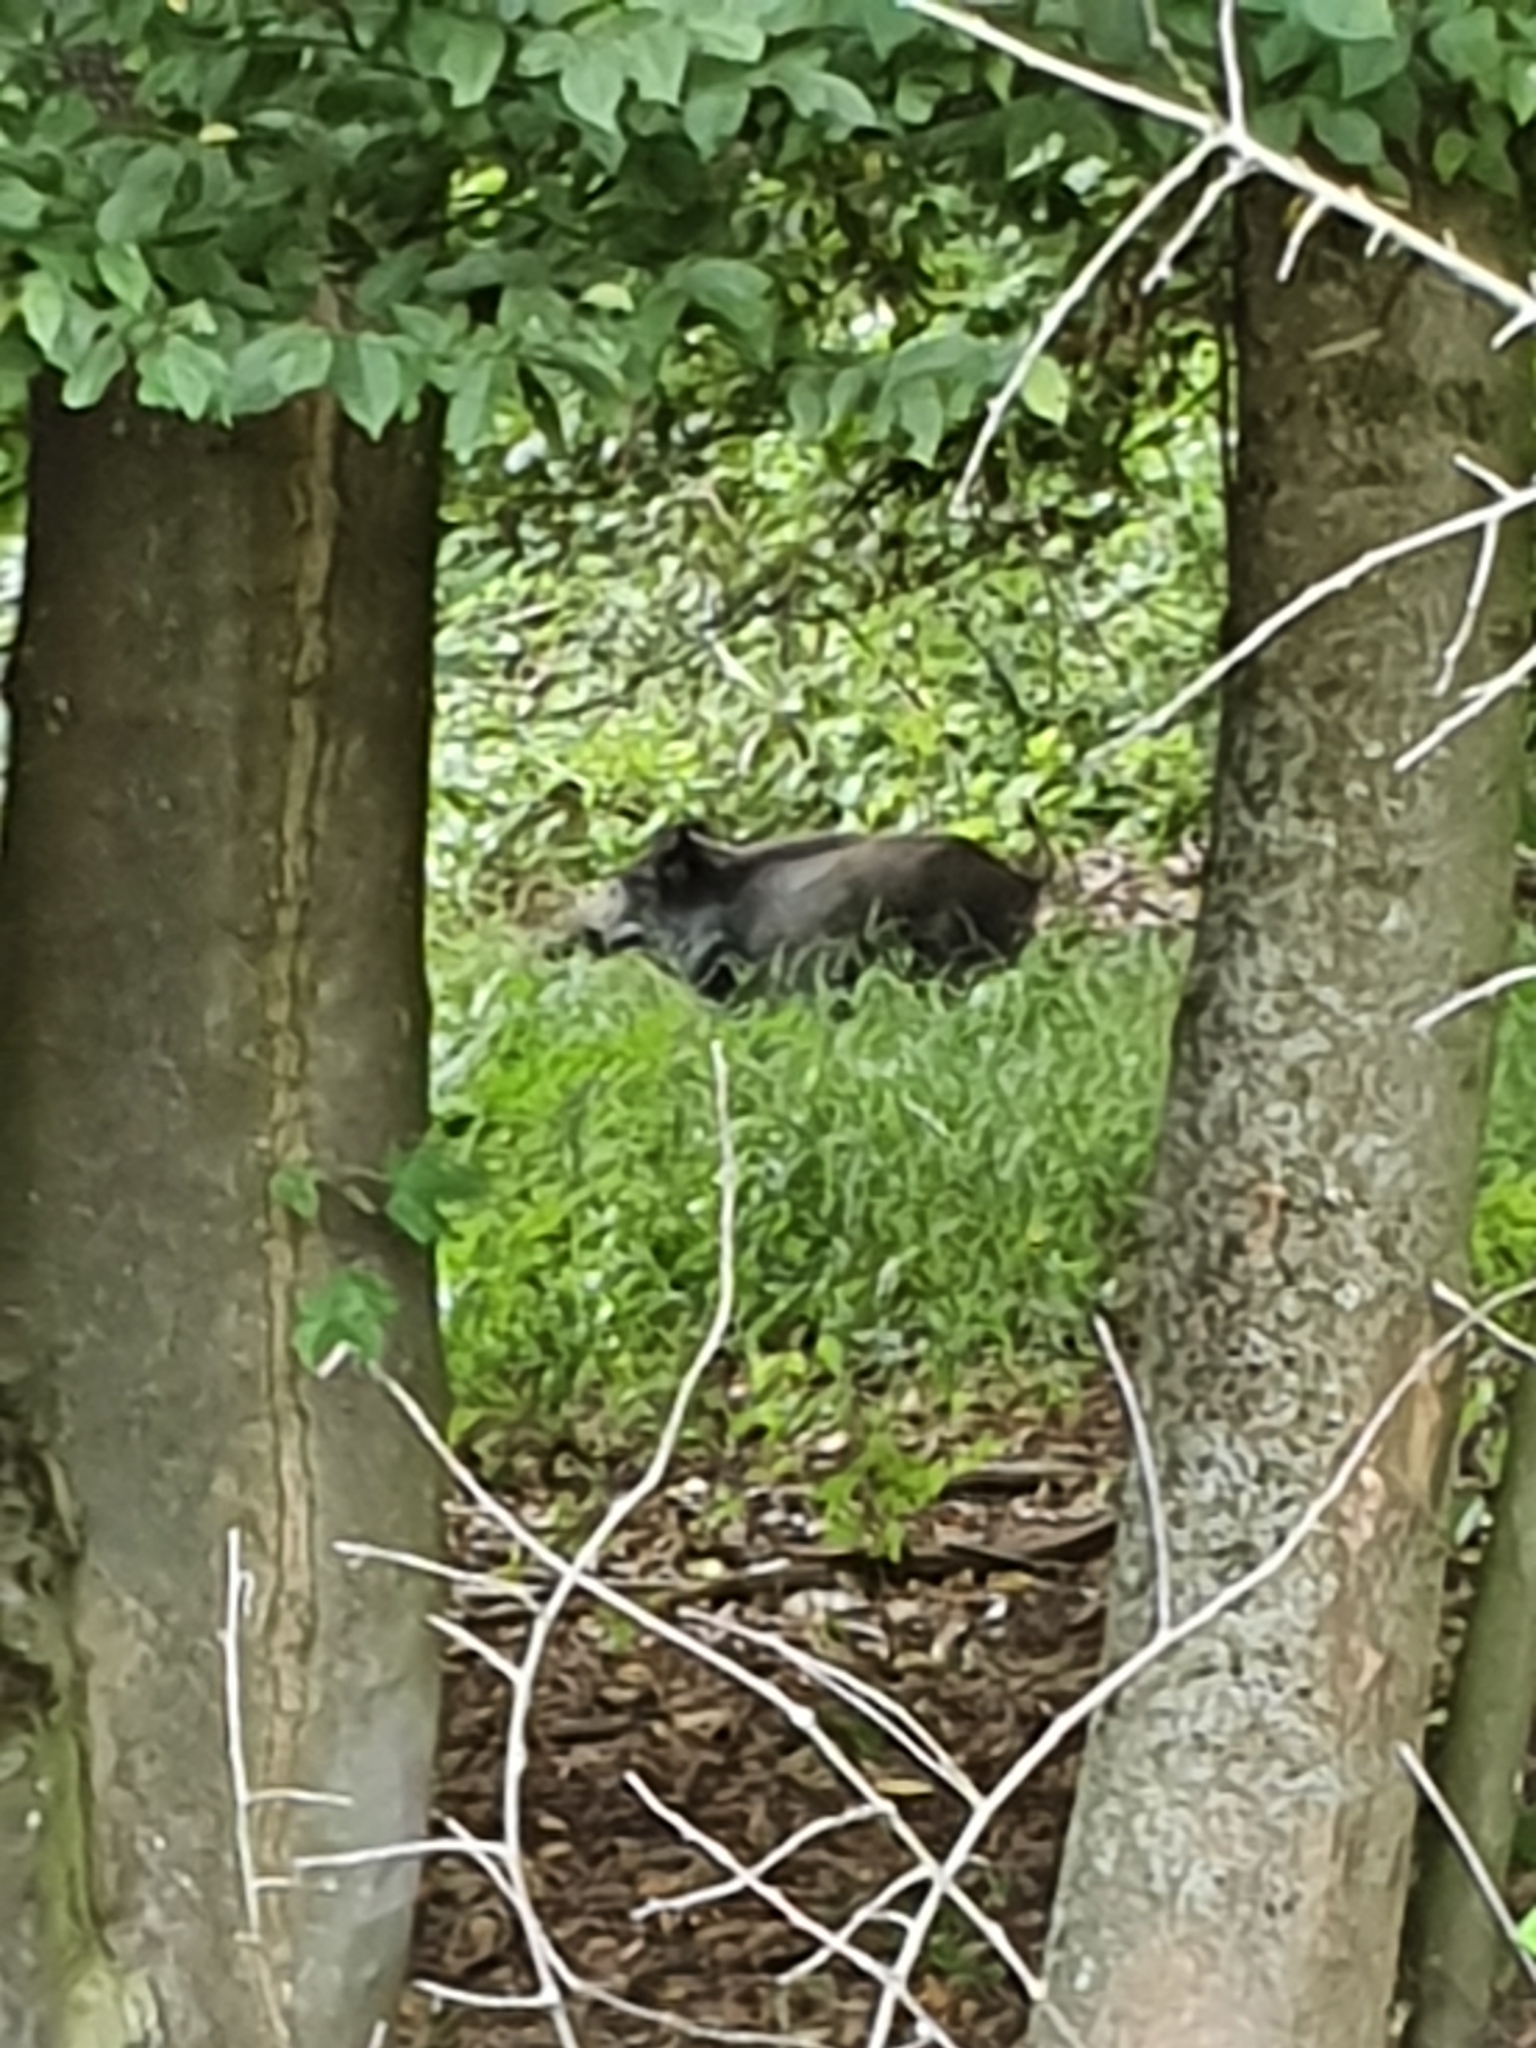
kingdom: Animalia
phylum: Chordata
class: Mammalia
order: Artiodactyla
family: Suidae
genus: Sus
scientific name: Sus scrofa
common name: Wild boar
